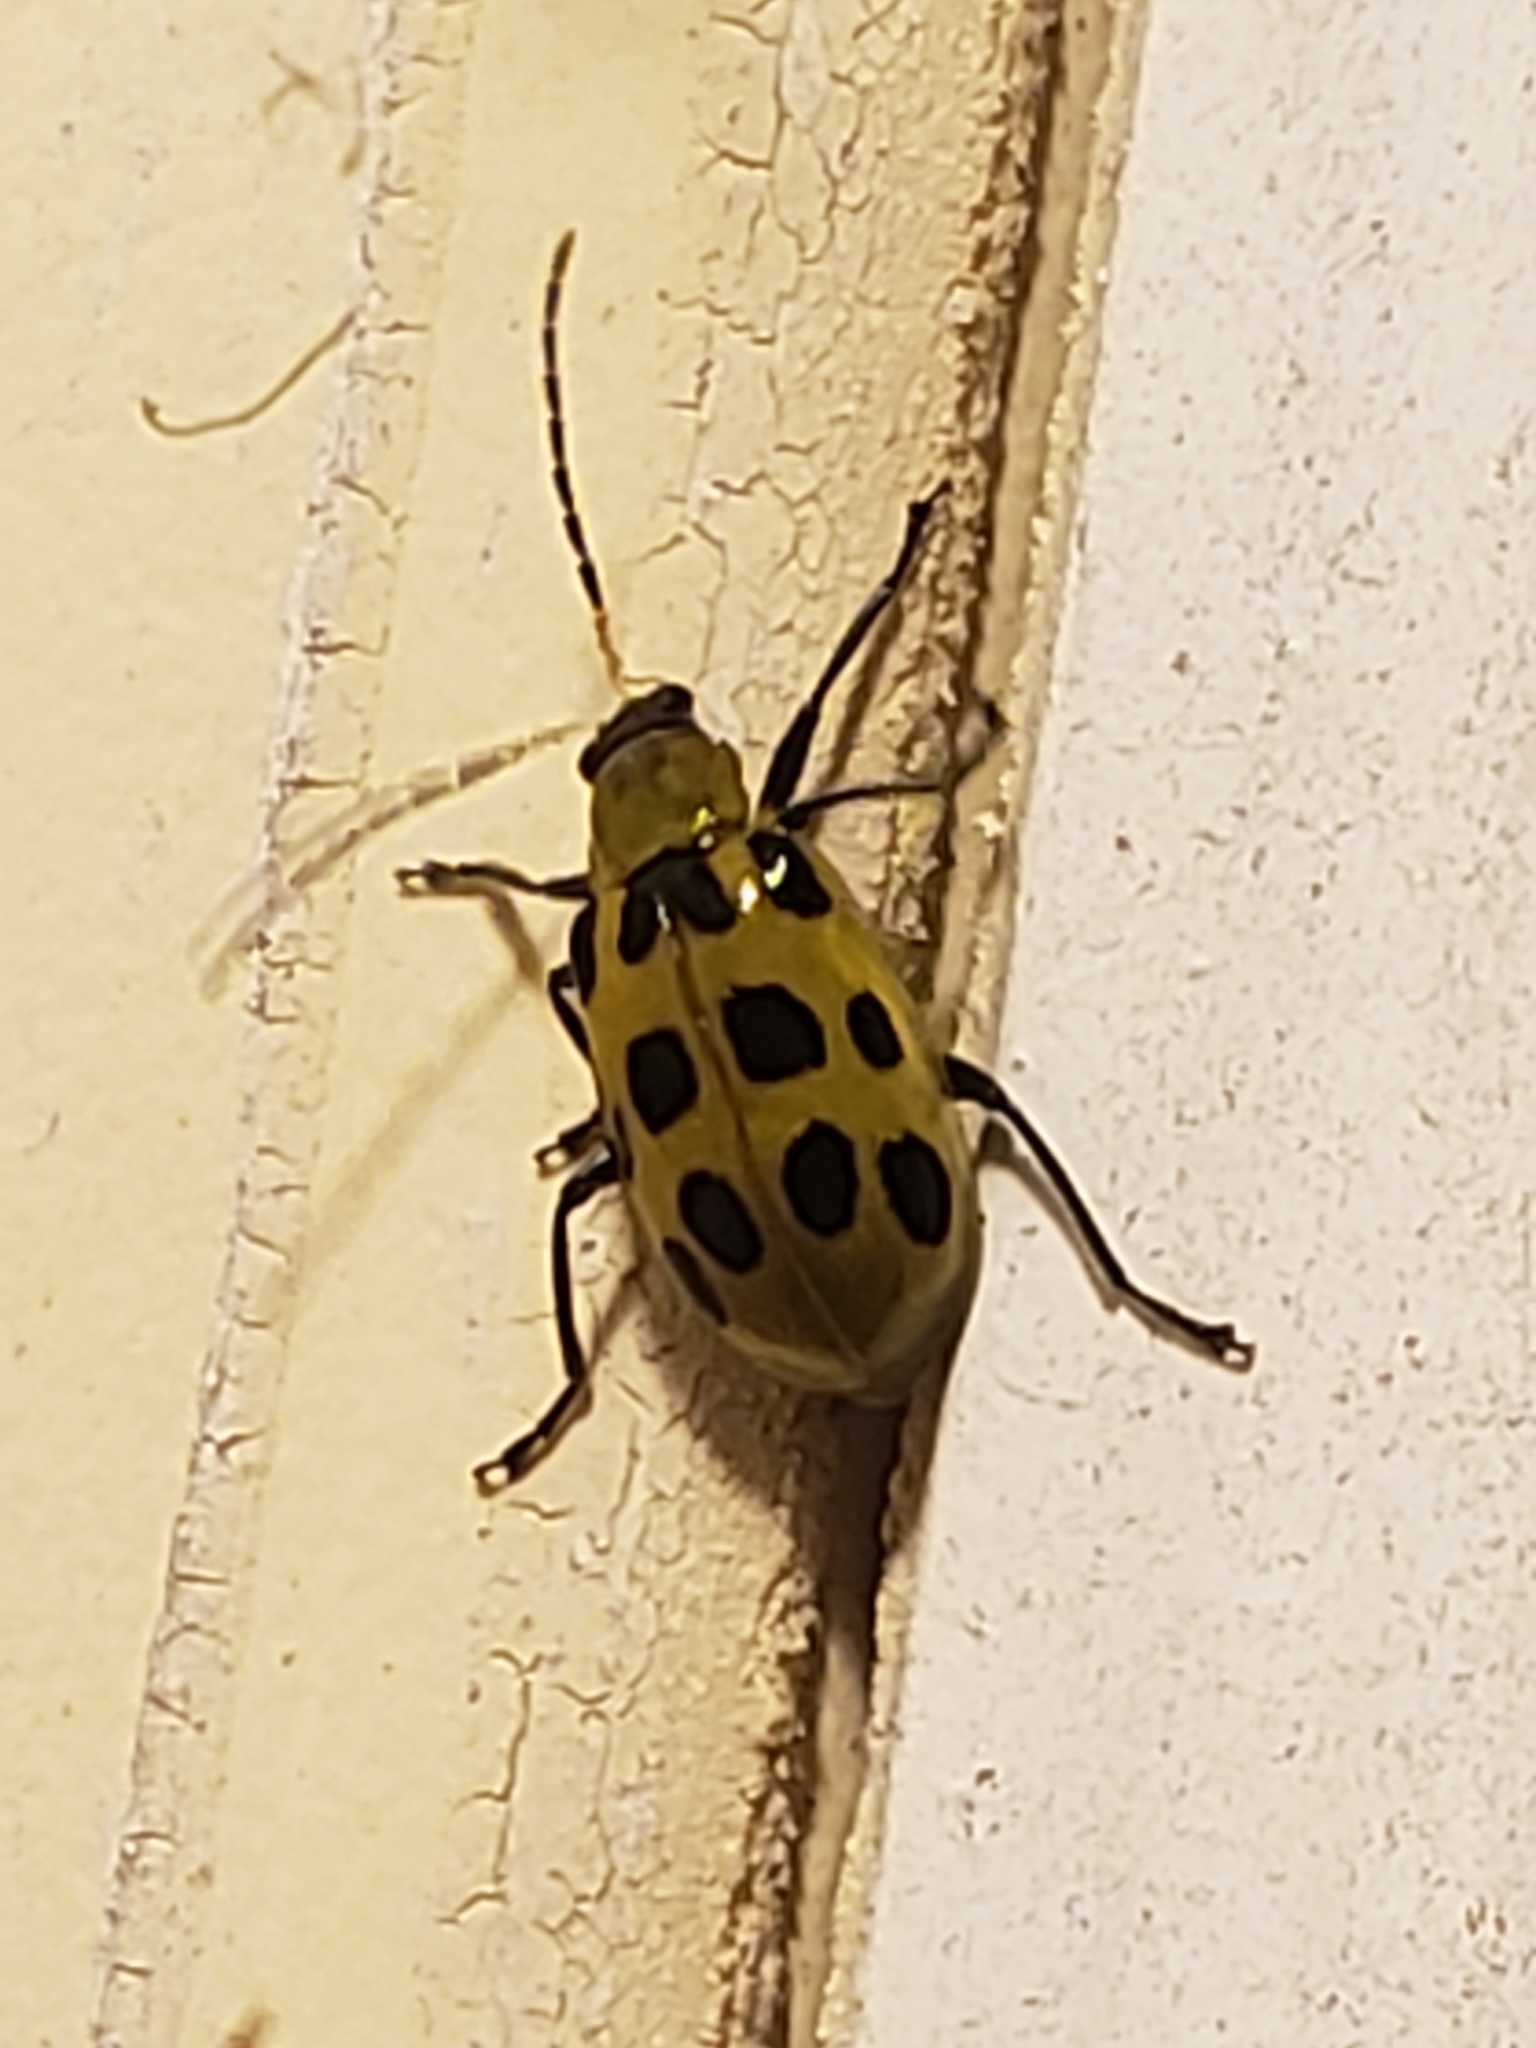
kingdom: Animalia
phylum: Arthropoda
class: Insecta
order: Coleoptera
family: Chrysomelidae
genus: Diabrotica
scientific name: Diabrotica undecimpunctata
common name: Spotted cucumber beetle
